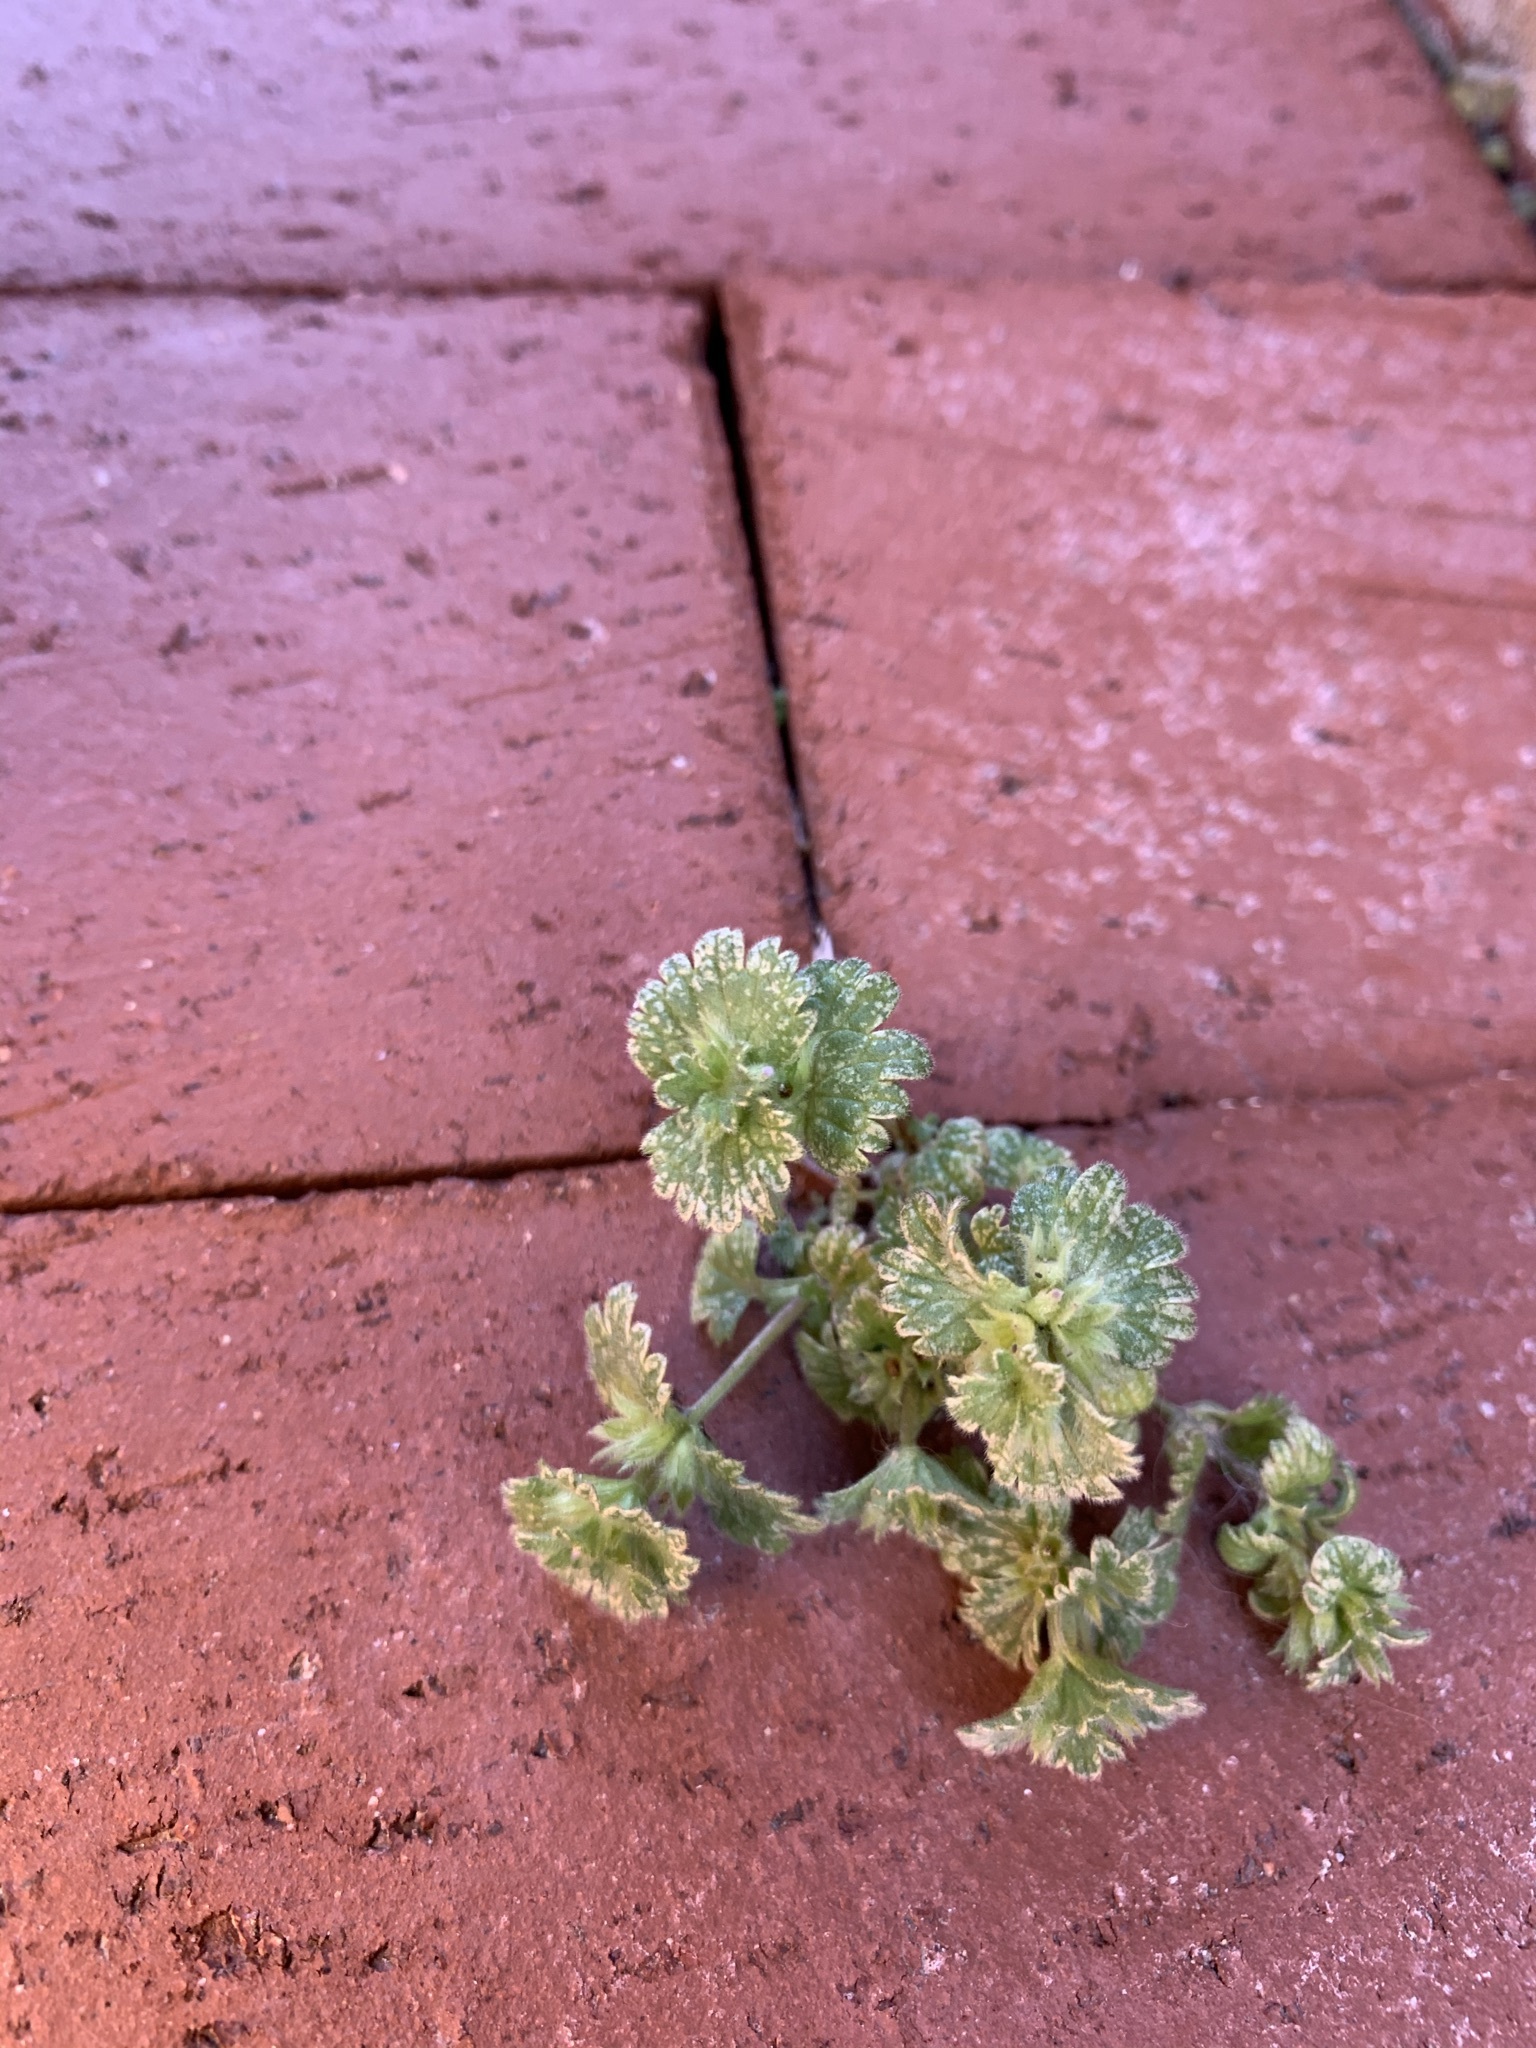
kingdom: Plantae
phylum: Tracheophyta
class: Magnoliopsida
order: Lamiales
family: Lamiaceae
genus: Lamium
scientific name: Lamium amplexicaule
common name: Henbit dead-nettle
